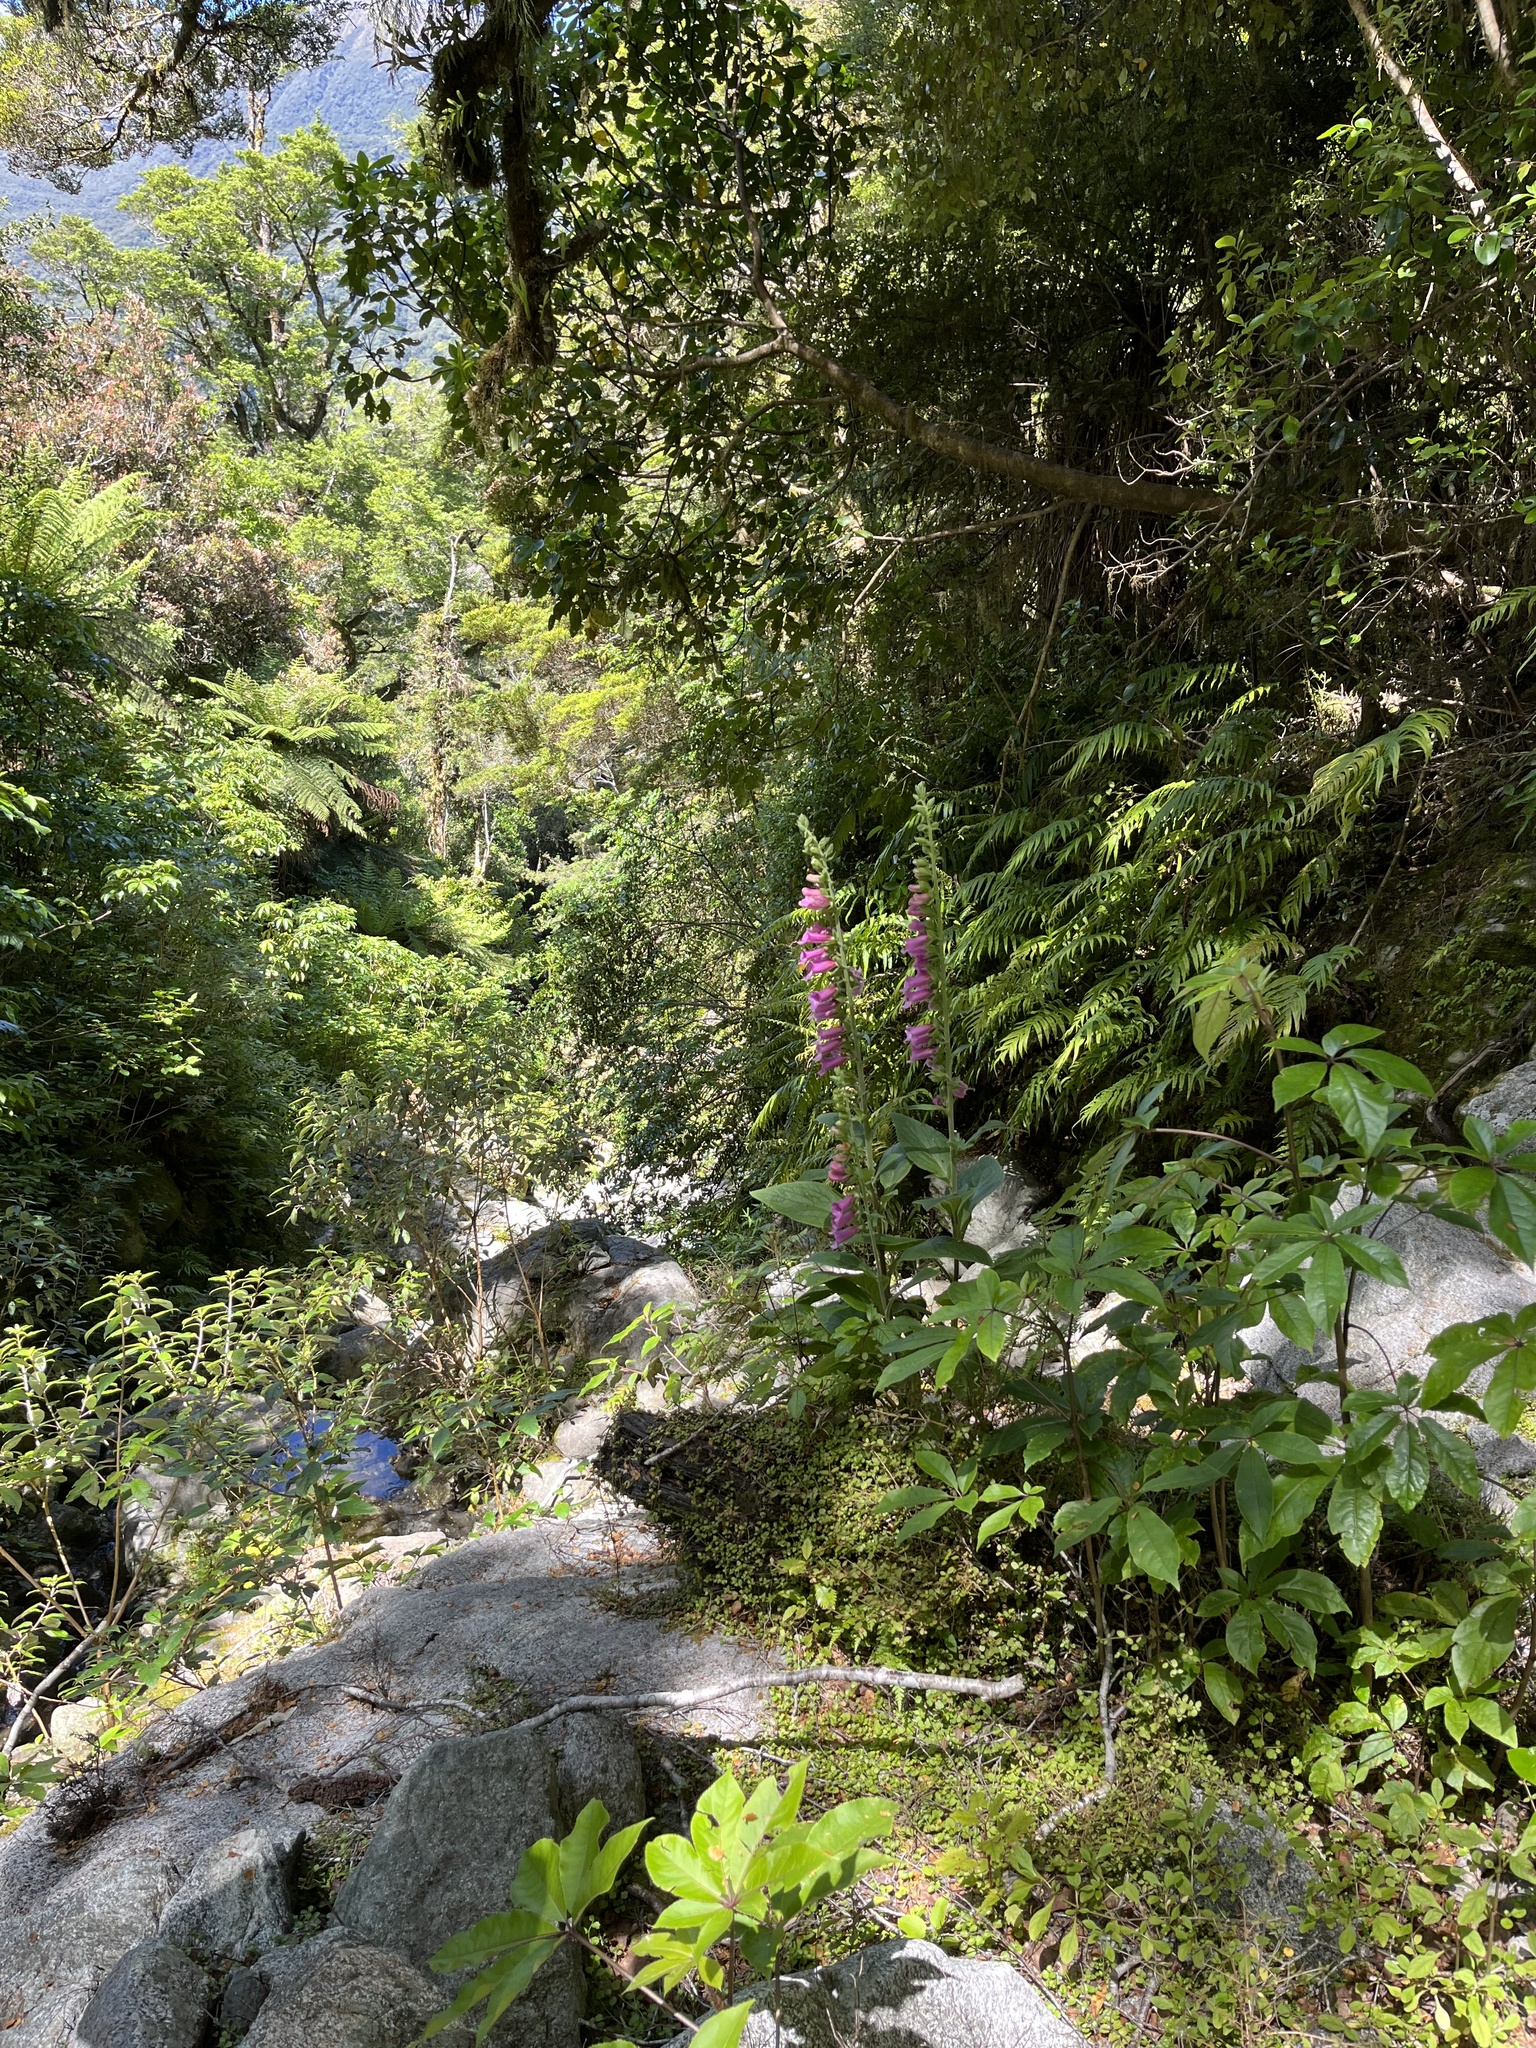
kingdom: Plantae
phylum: Tracheophyta
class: Magnoliopsida
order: Lamiales
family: Plantaginaceae
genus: Digitalis
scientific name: Digitalis purpurea
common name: Foxglove
